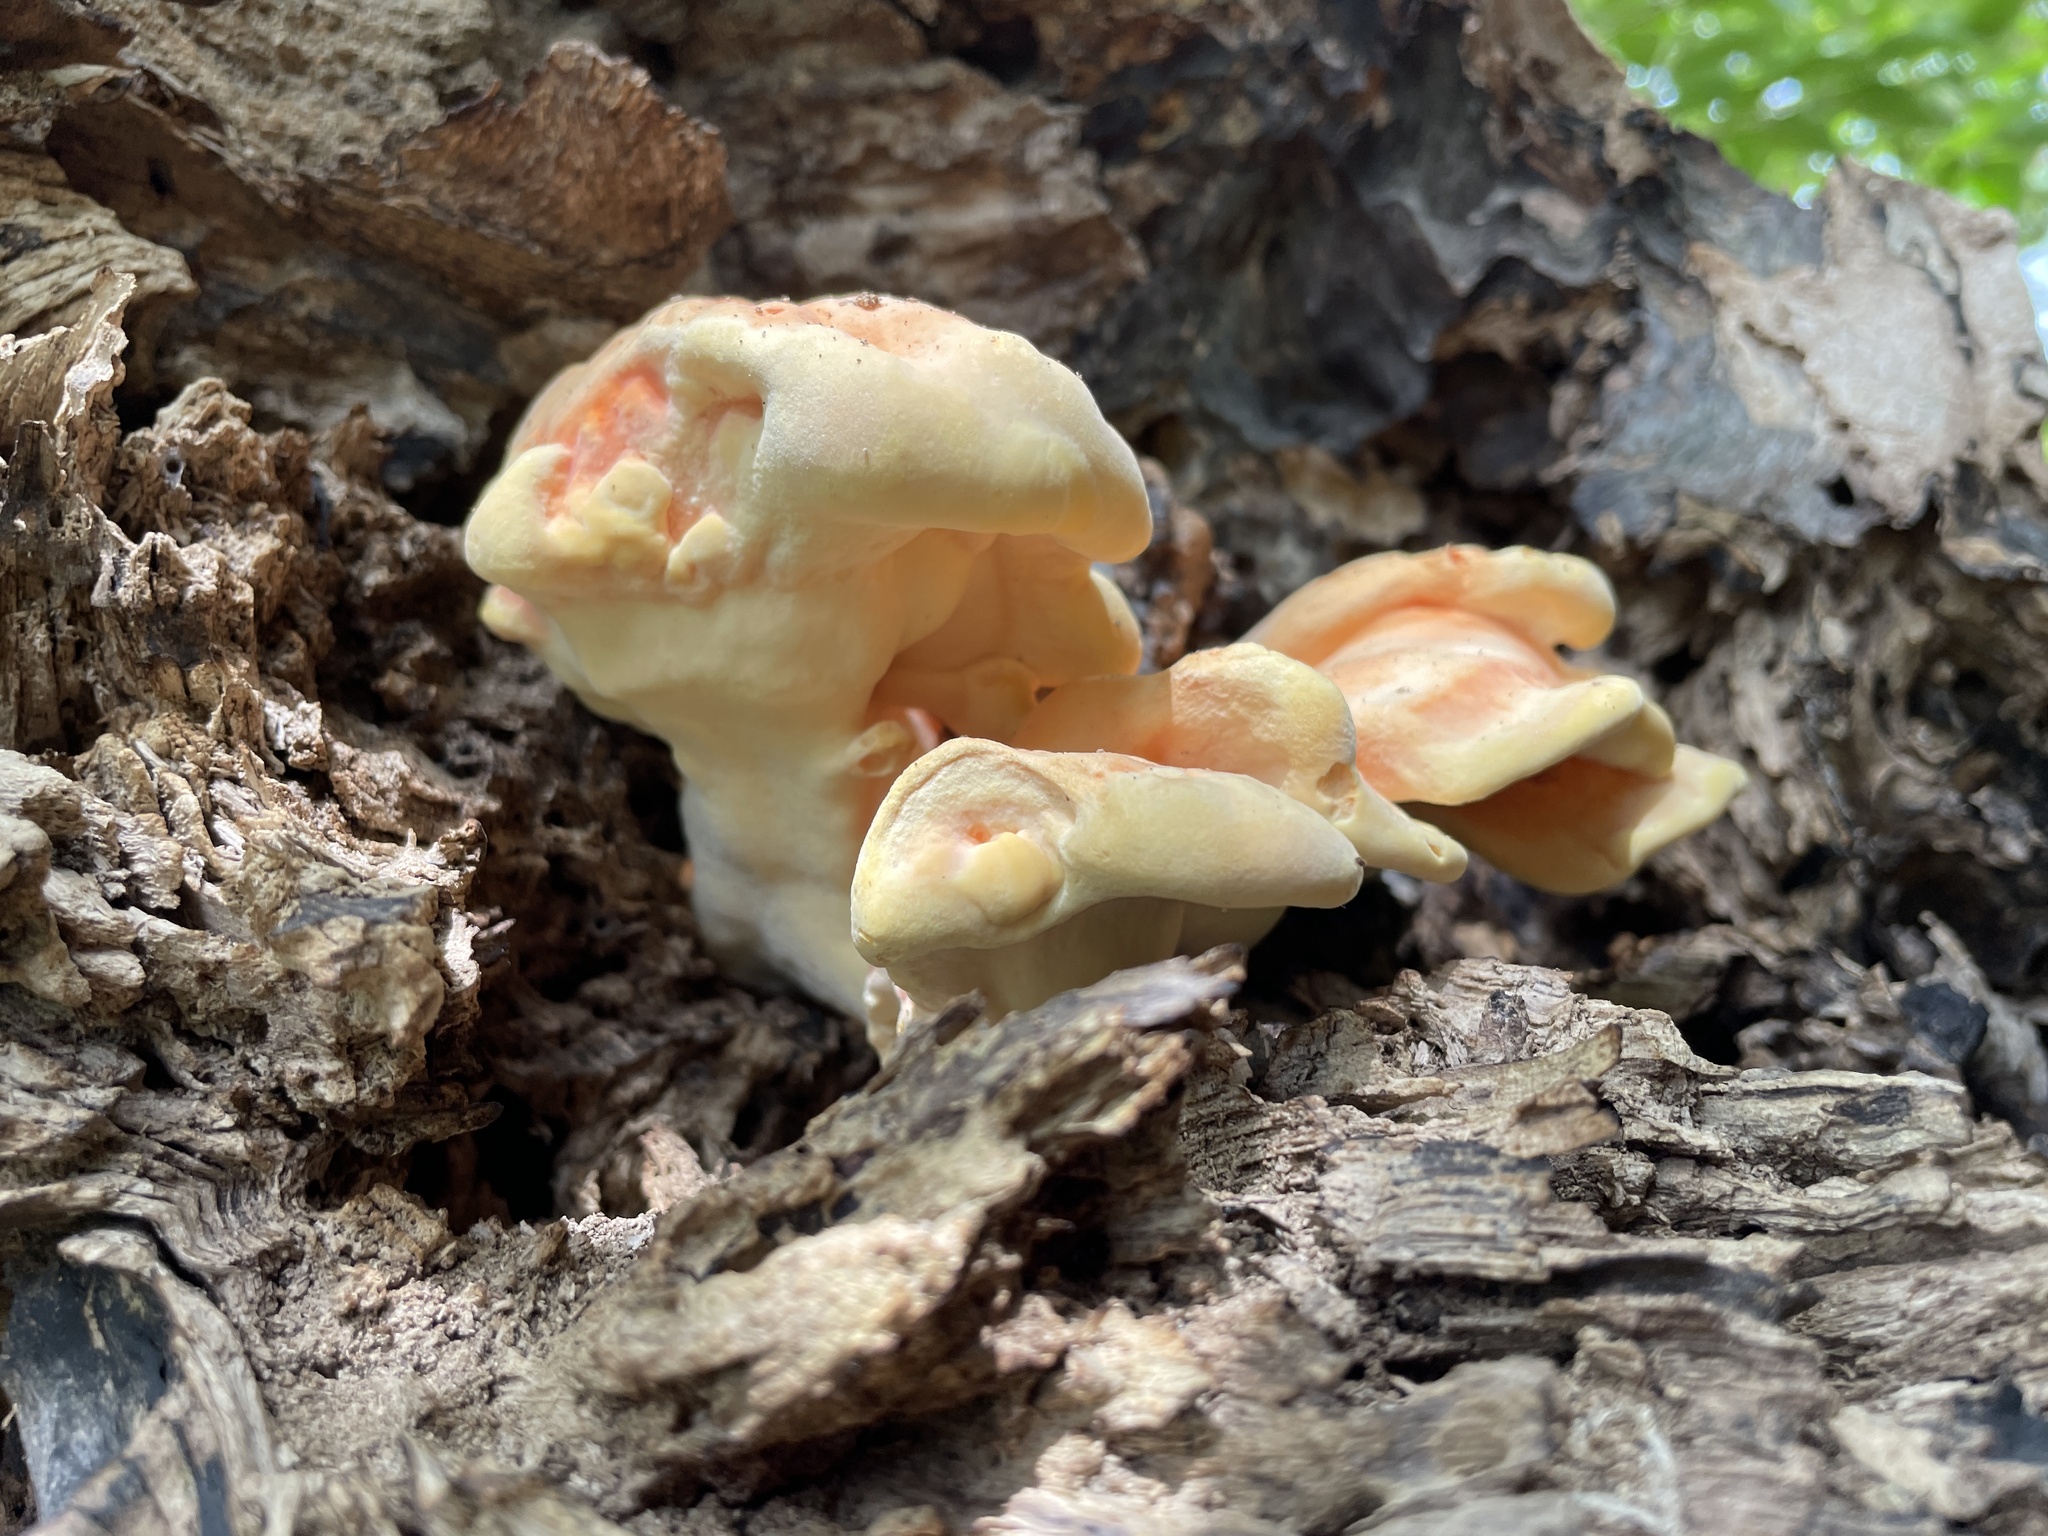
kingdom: Fungi
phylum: Basidiomycota
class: Agaricomycetes
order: Polyporales
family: Laetiporaceae
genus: Laetiporus
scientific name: Laetiporus sulphureus
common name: Chicken of the woods
